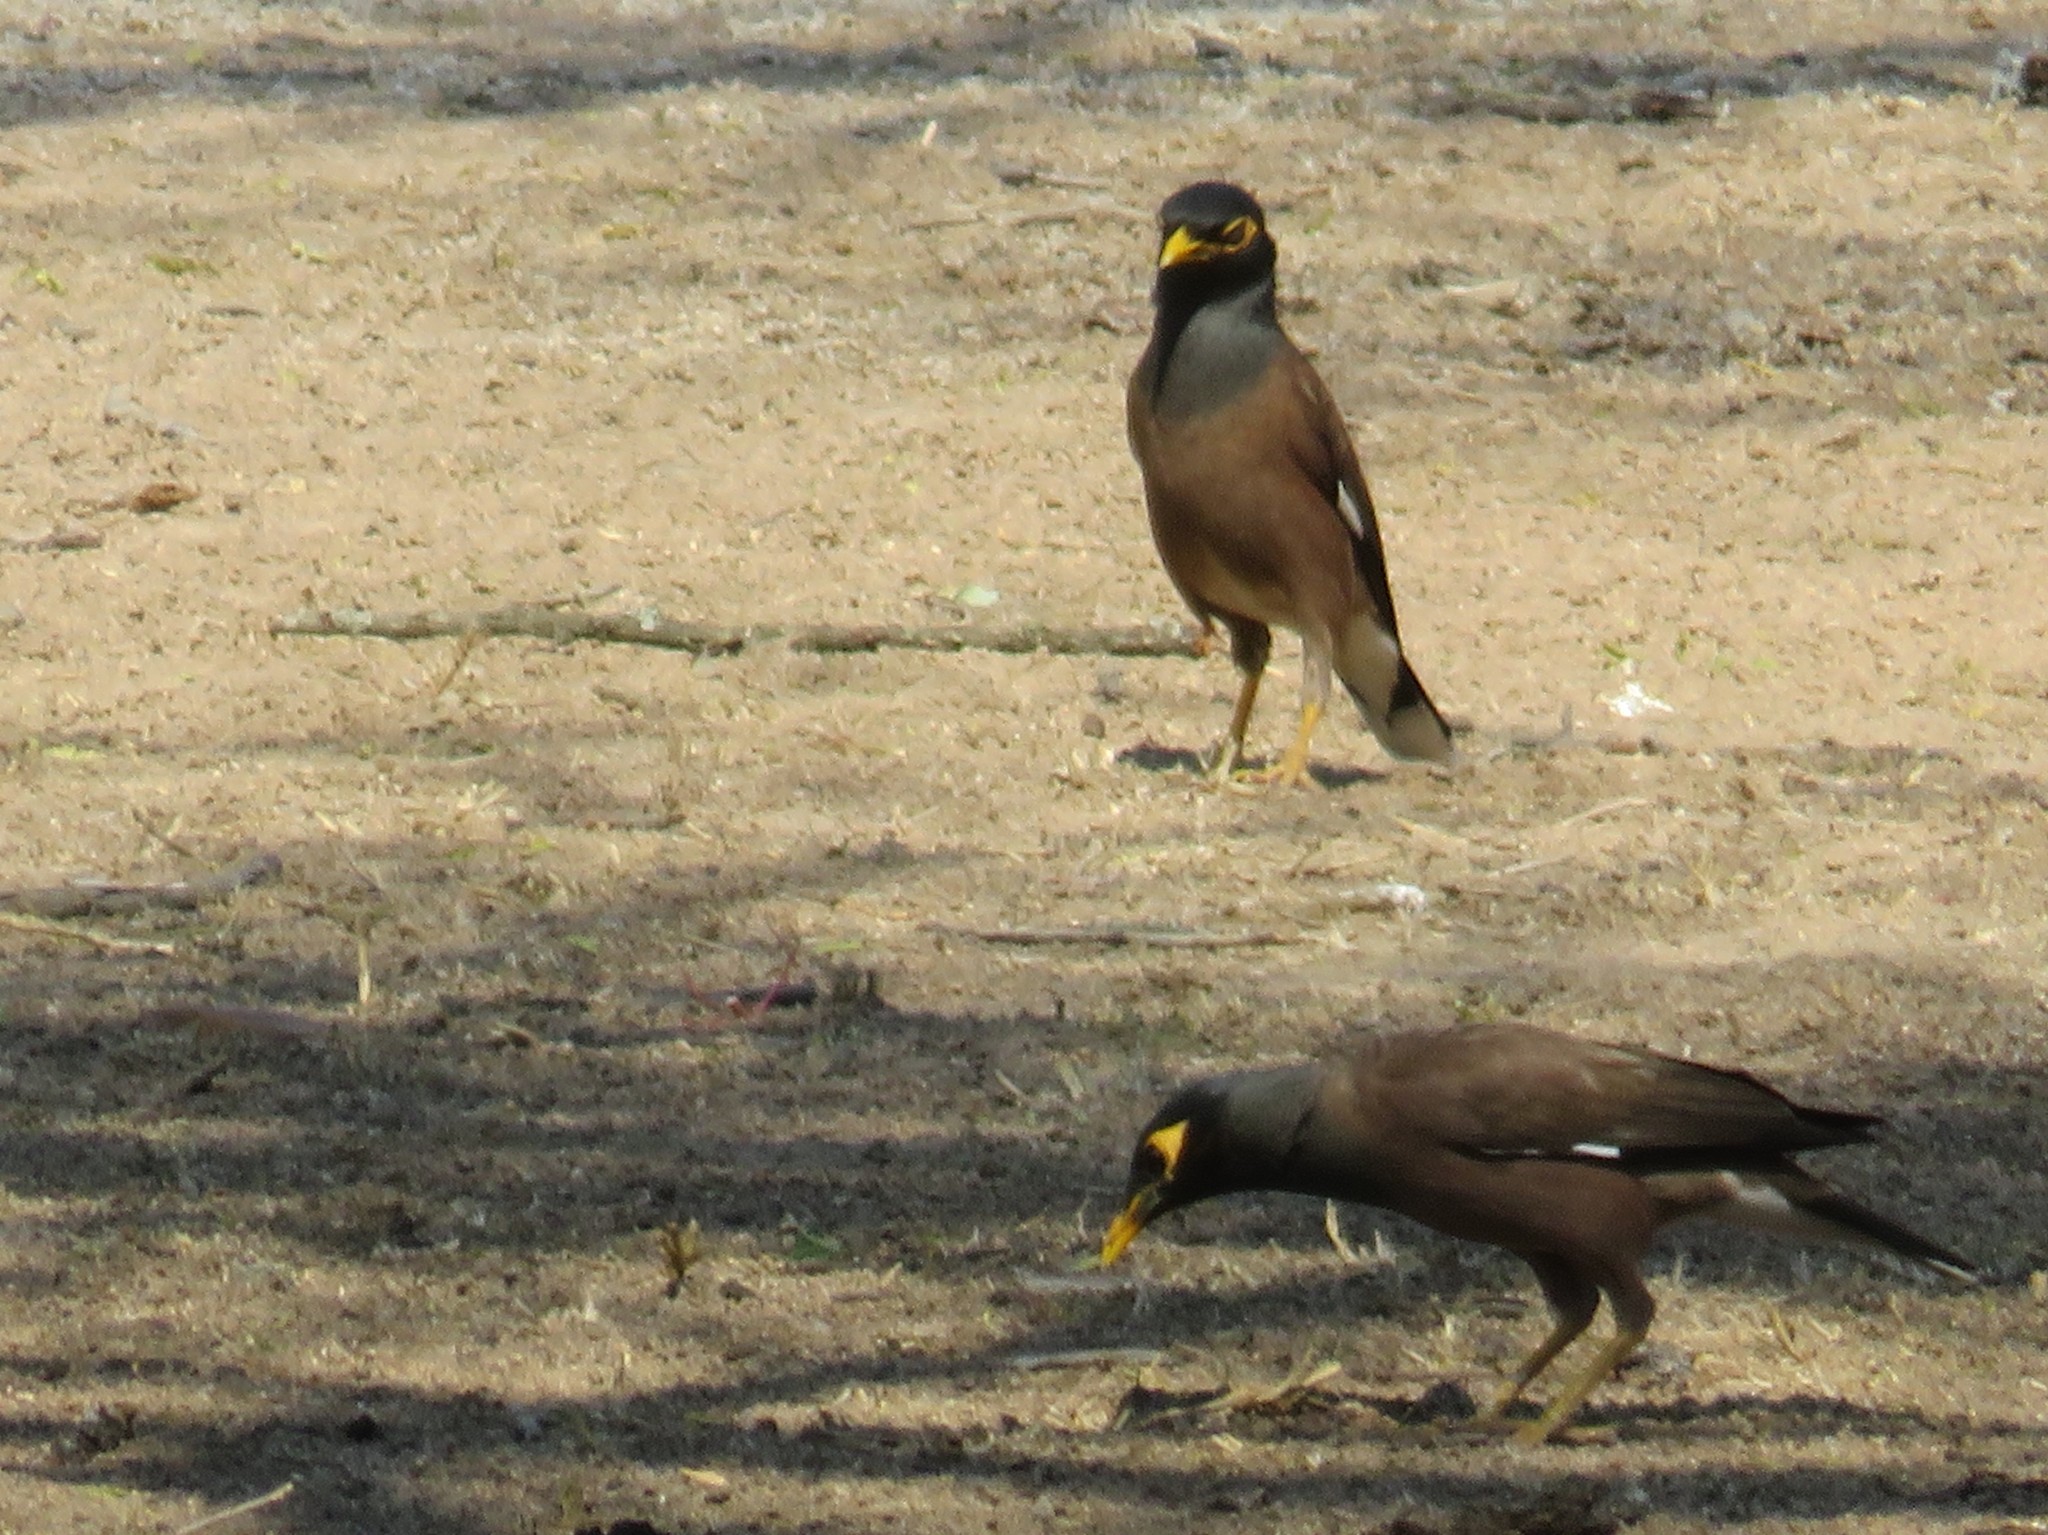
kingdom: Animalia
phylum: Chordata
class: Aves
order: Passeriformes
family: Sturnidae
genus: Acridotheres
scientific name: Acridotheres tristis
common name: Common myna
